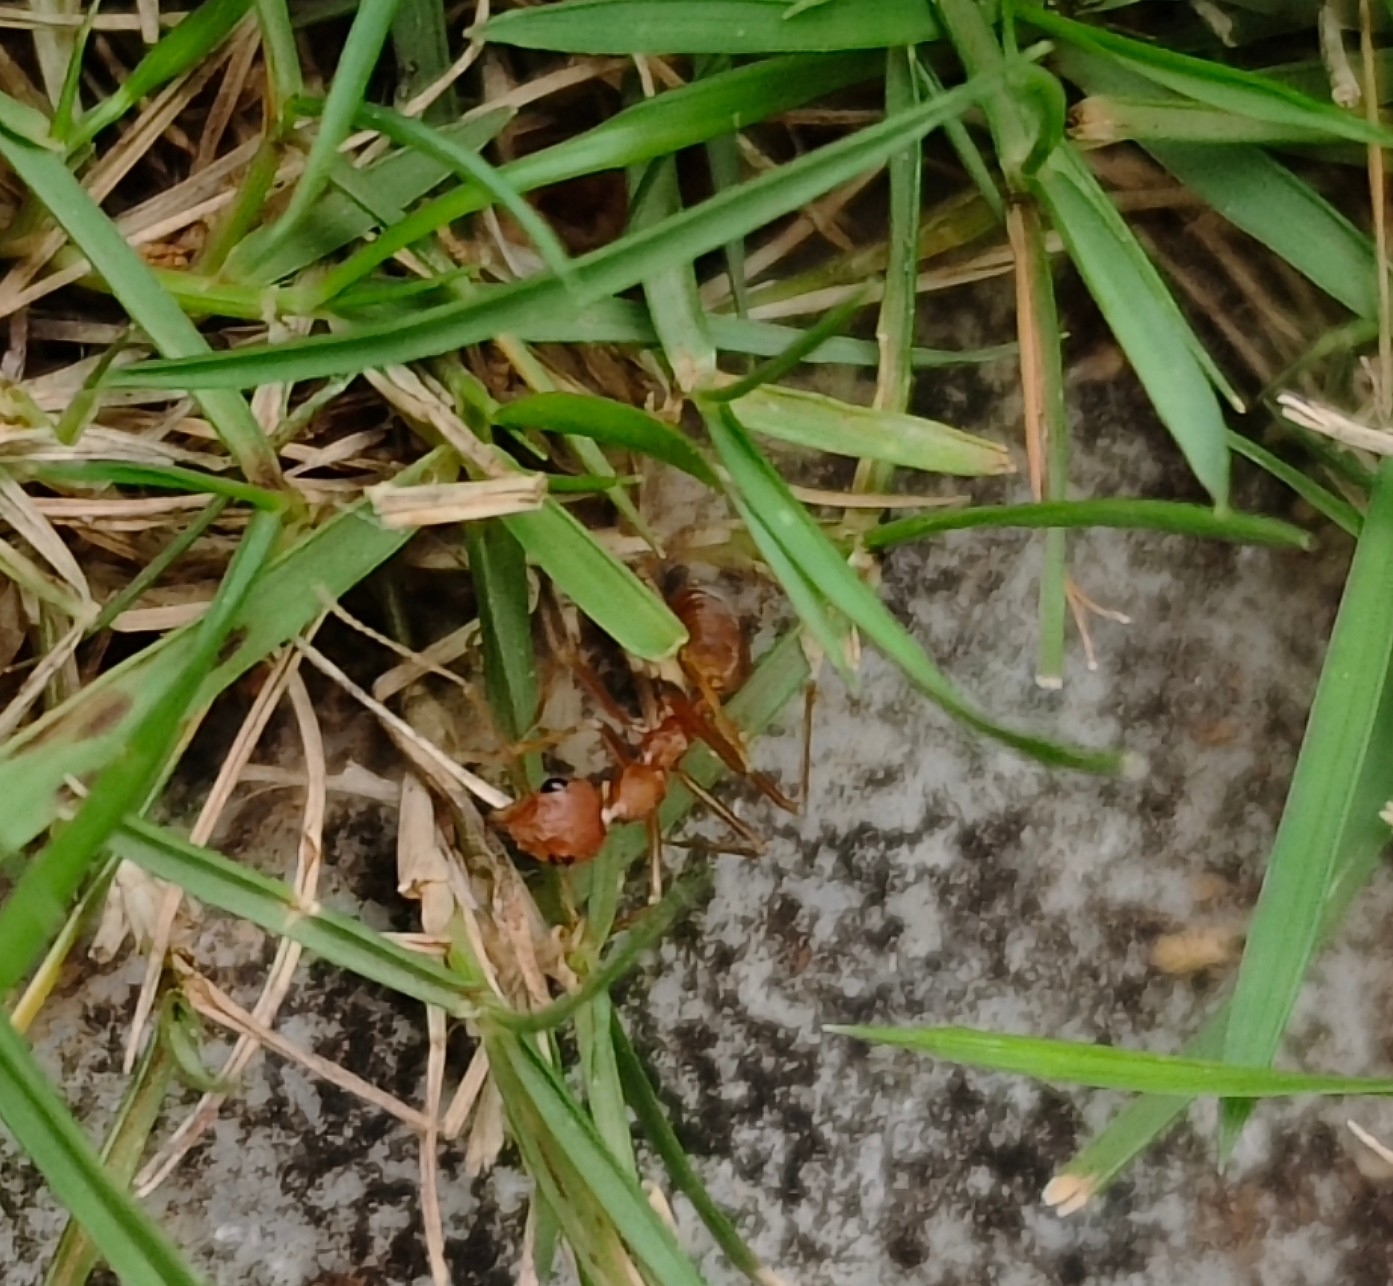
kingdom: Animalia
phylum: Arthropoda
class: Insecta
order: Hymenoptera
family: Formicidae
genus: Oecophylla
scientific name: Oecophylla smaragdina
